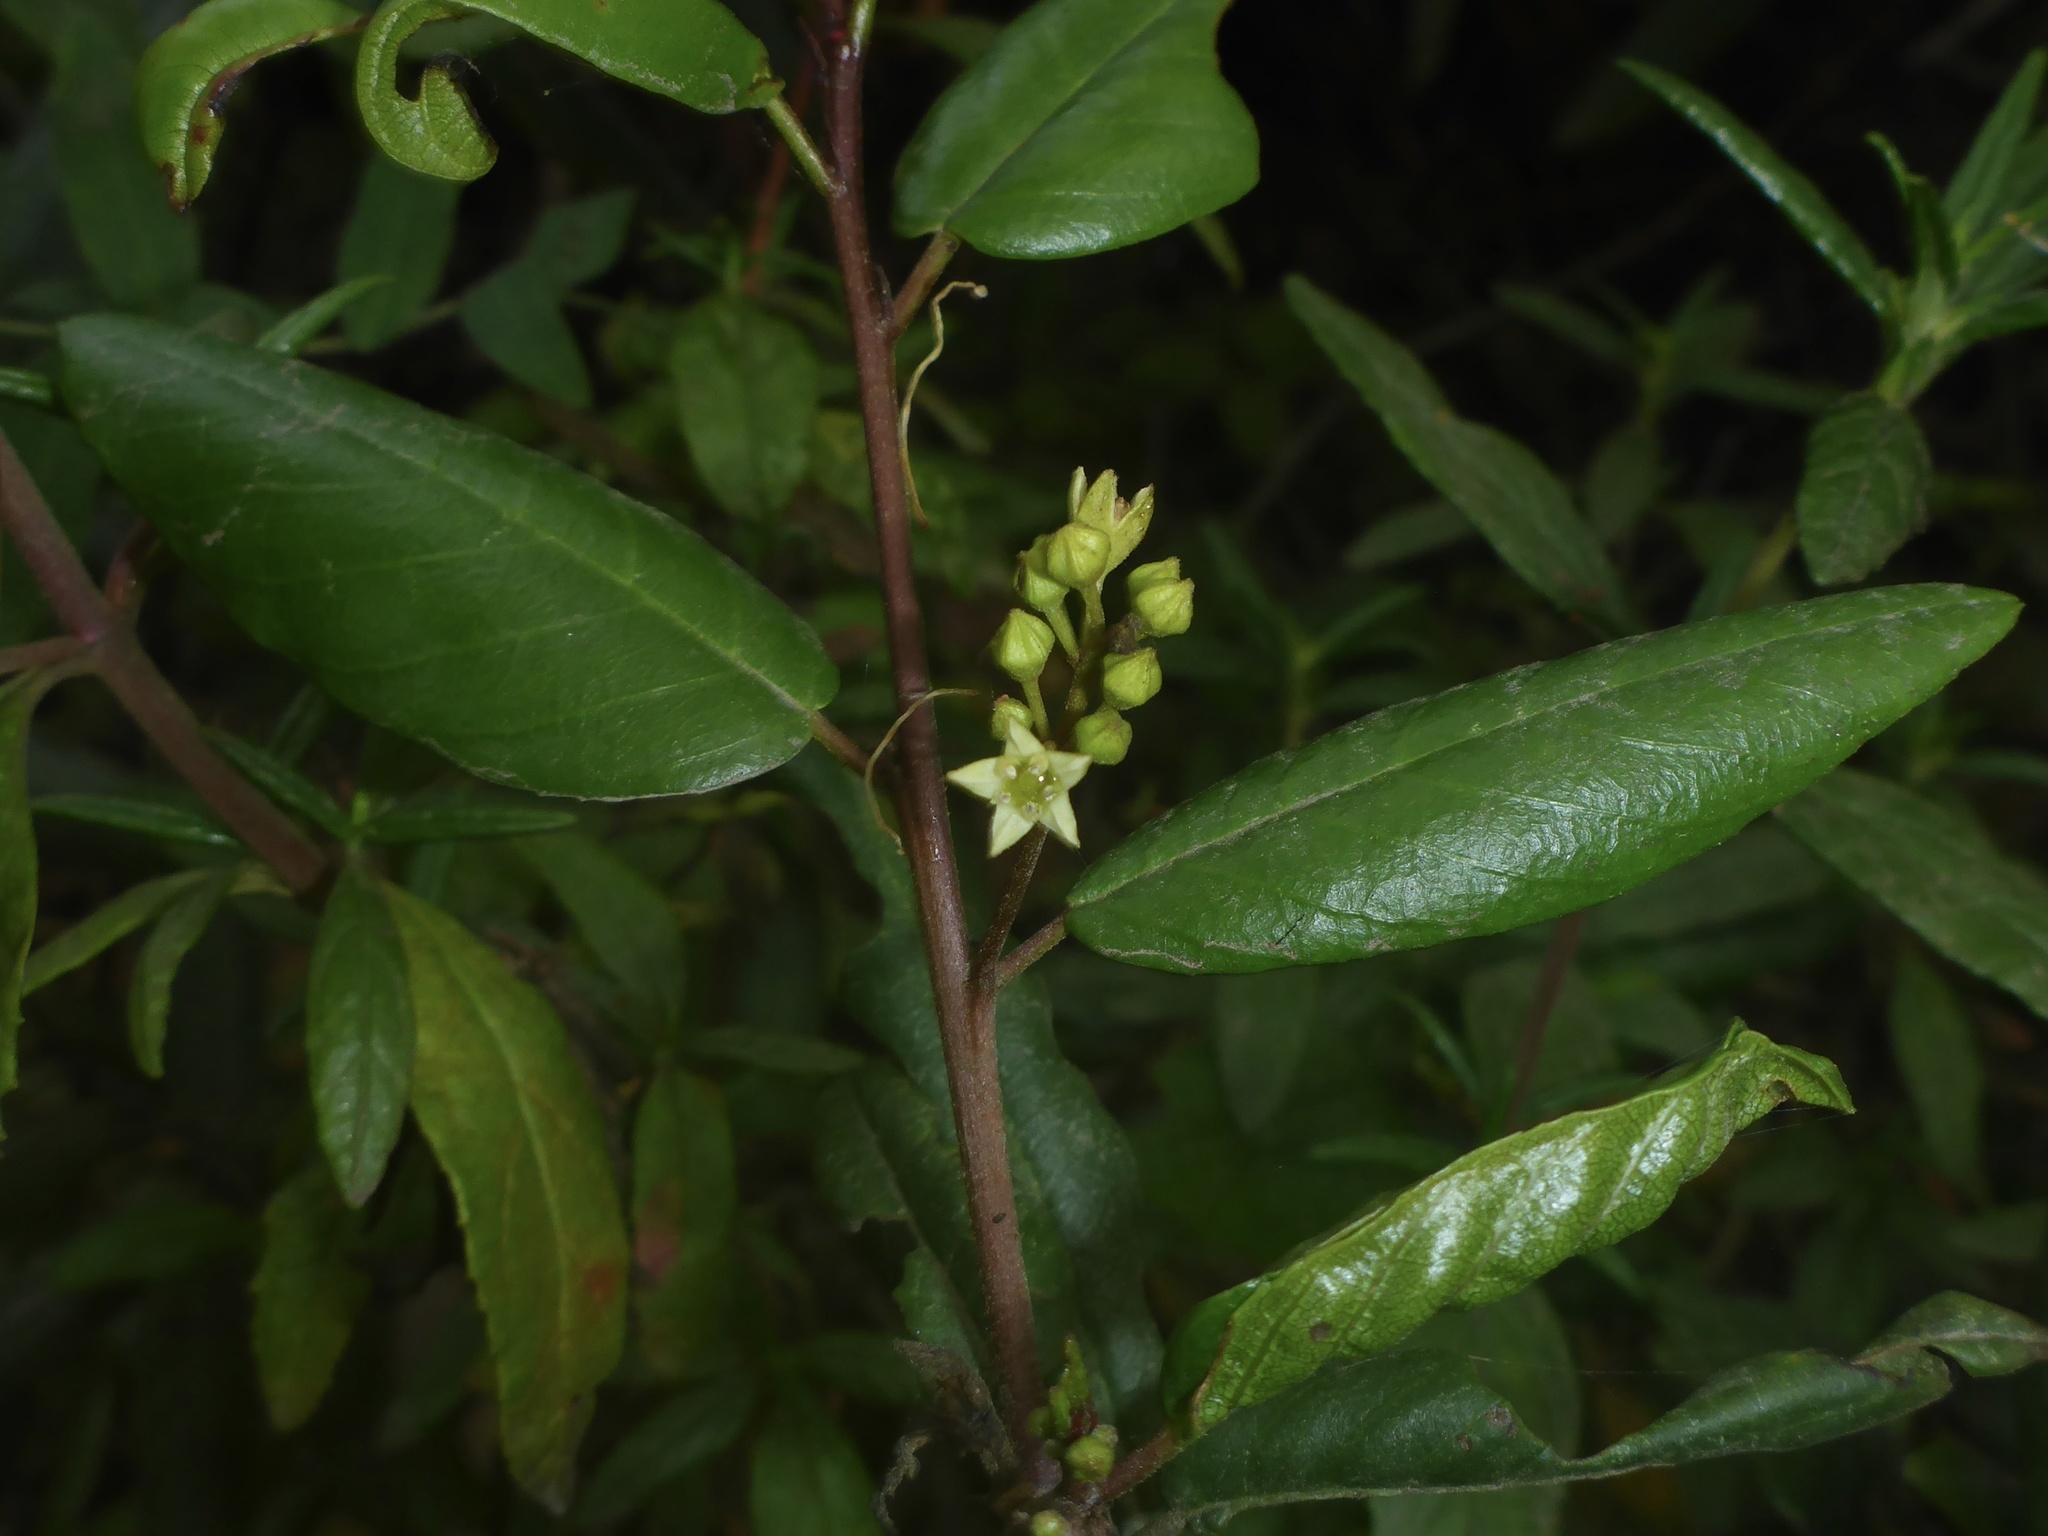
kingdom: Plantae
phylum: Tracheophyta
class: Magnoliopsida
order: Rosales
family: Rhamnaceae
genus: Frangula
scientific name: Frangula californica
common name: California buckthorn
